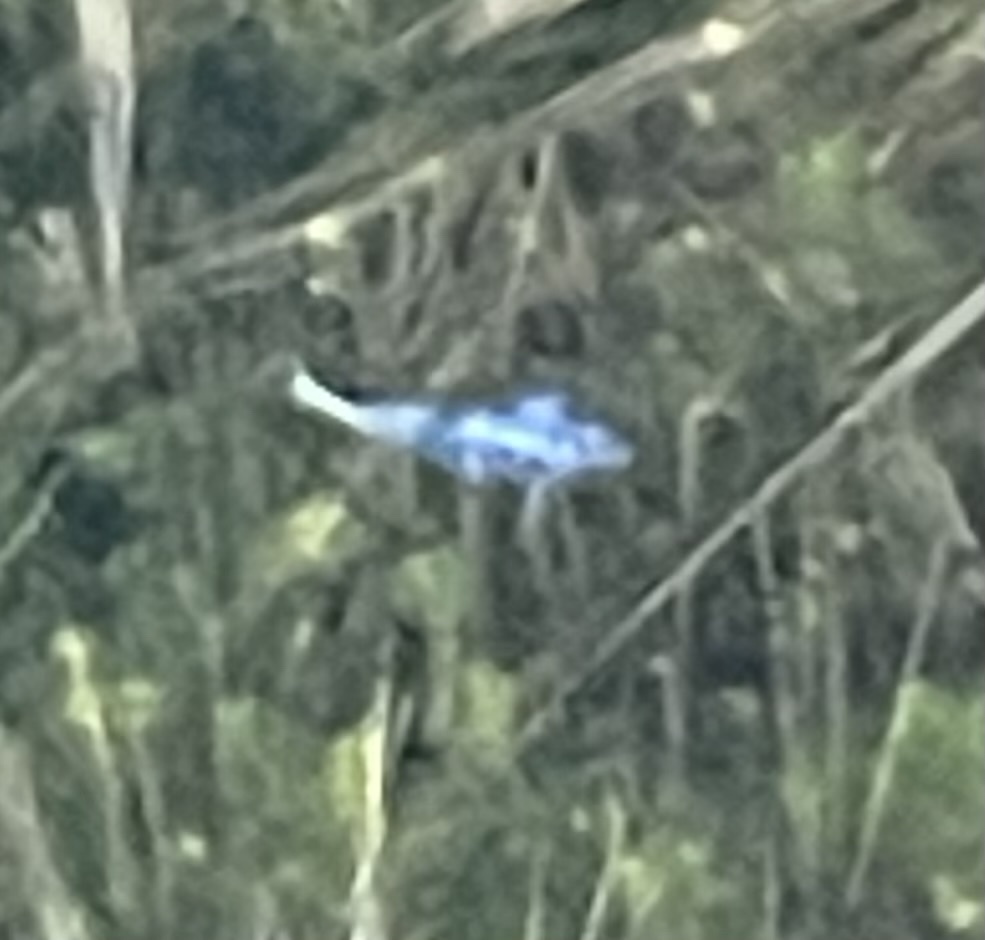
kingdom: Animalia
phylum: Chordata
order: Cyprinodontiformes
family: Cyprinodontidae
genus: Cyprinodon
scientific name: Cyprinodon macularius
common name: Desert pupfish
